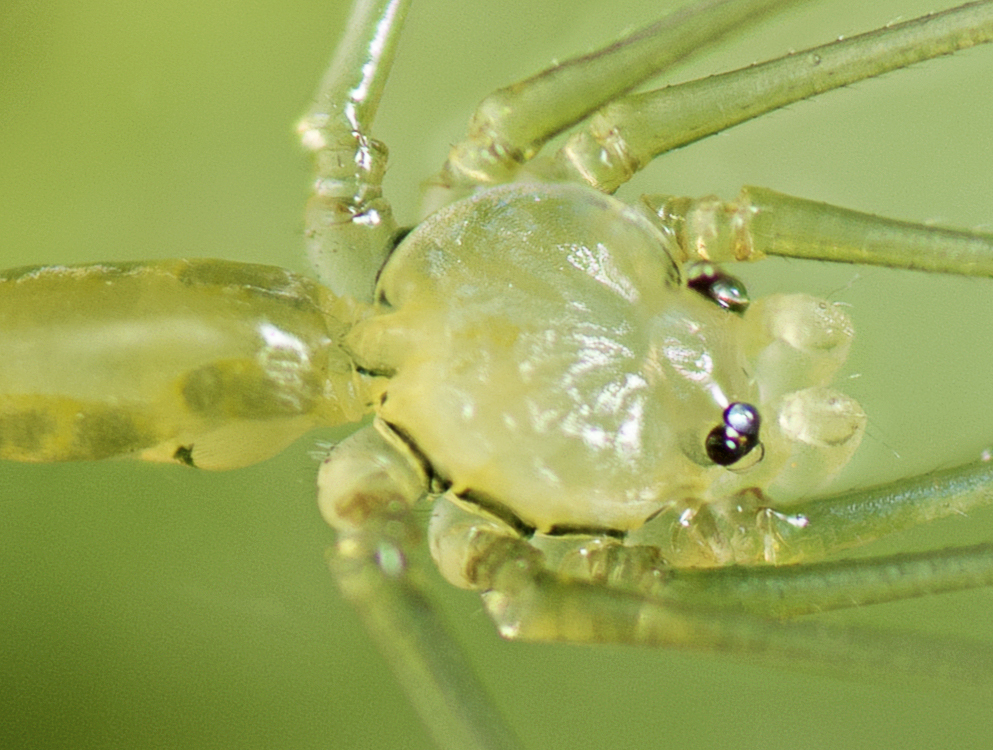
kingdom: Animalia
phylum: Arthropoda
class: Arachnida
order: Araneae
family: Pholcidae
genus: Micromerys
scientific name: Micromerys raveni
